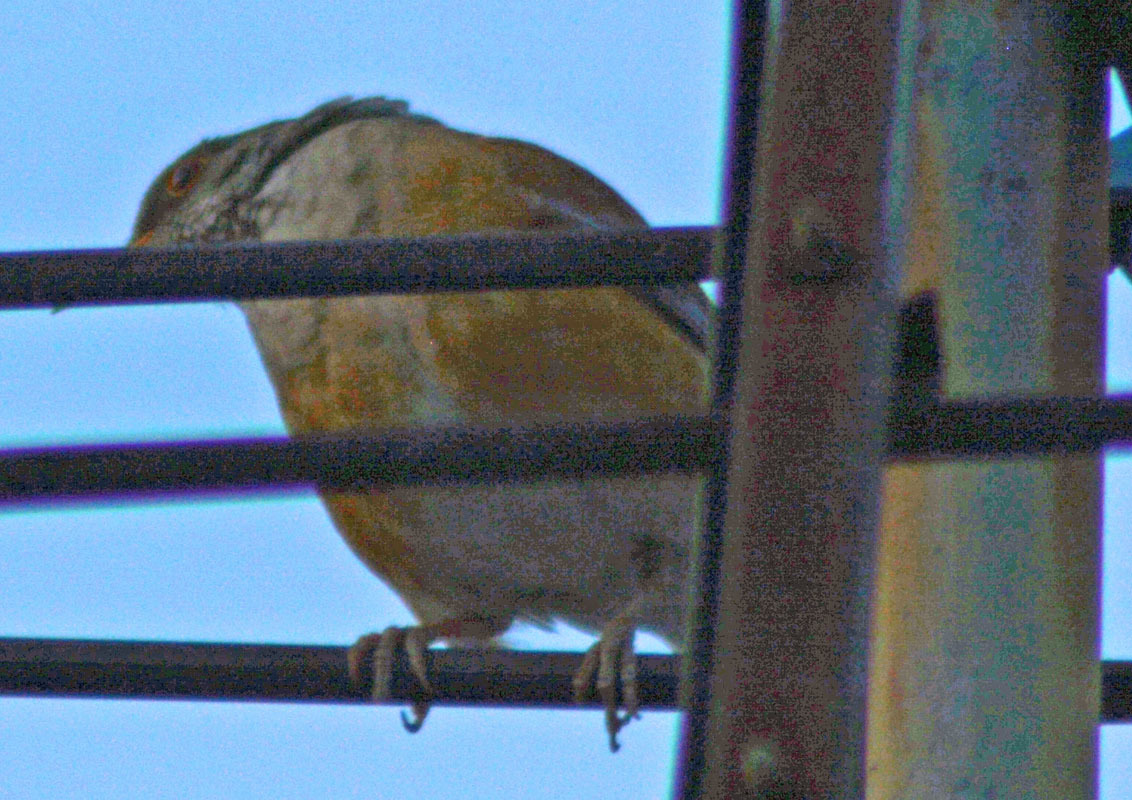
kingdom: Animalia
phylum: Chordata
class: Aves
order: Passeriformes
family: Turdidae
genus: Turdus
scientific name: Turdus rufopalliatus
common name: Rufous-backed robin
